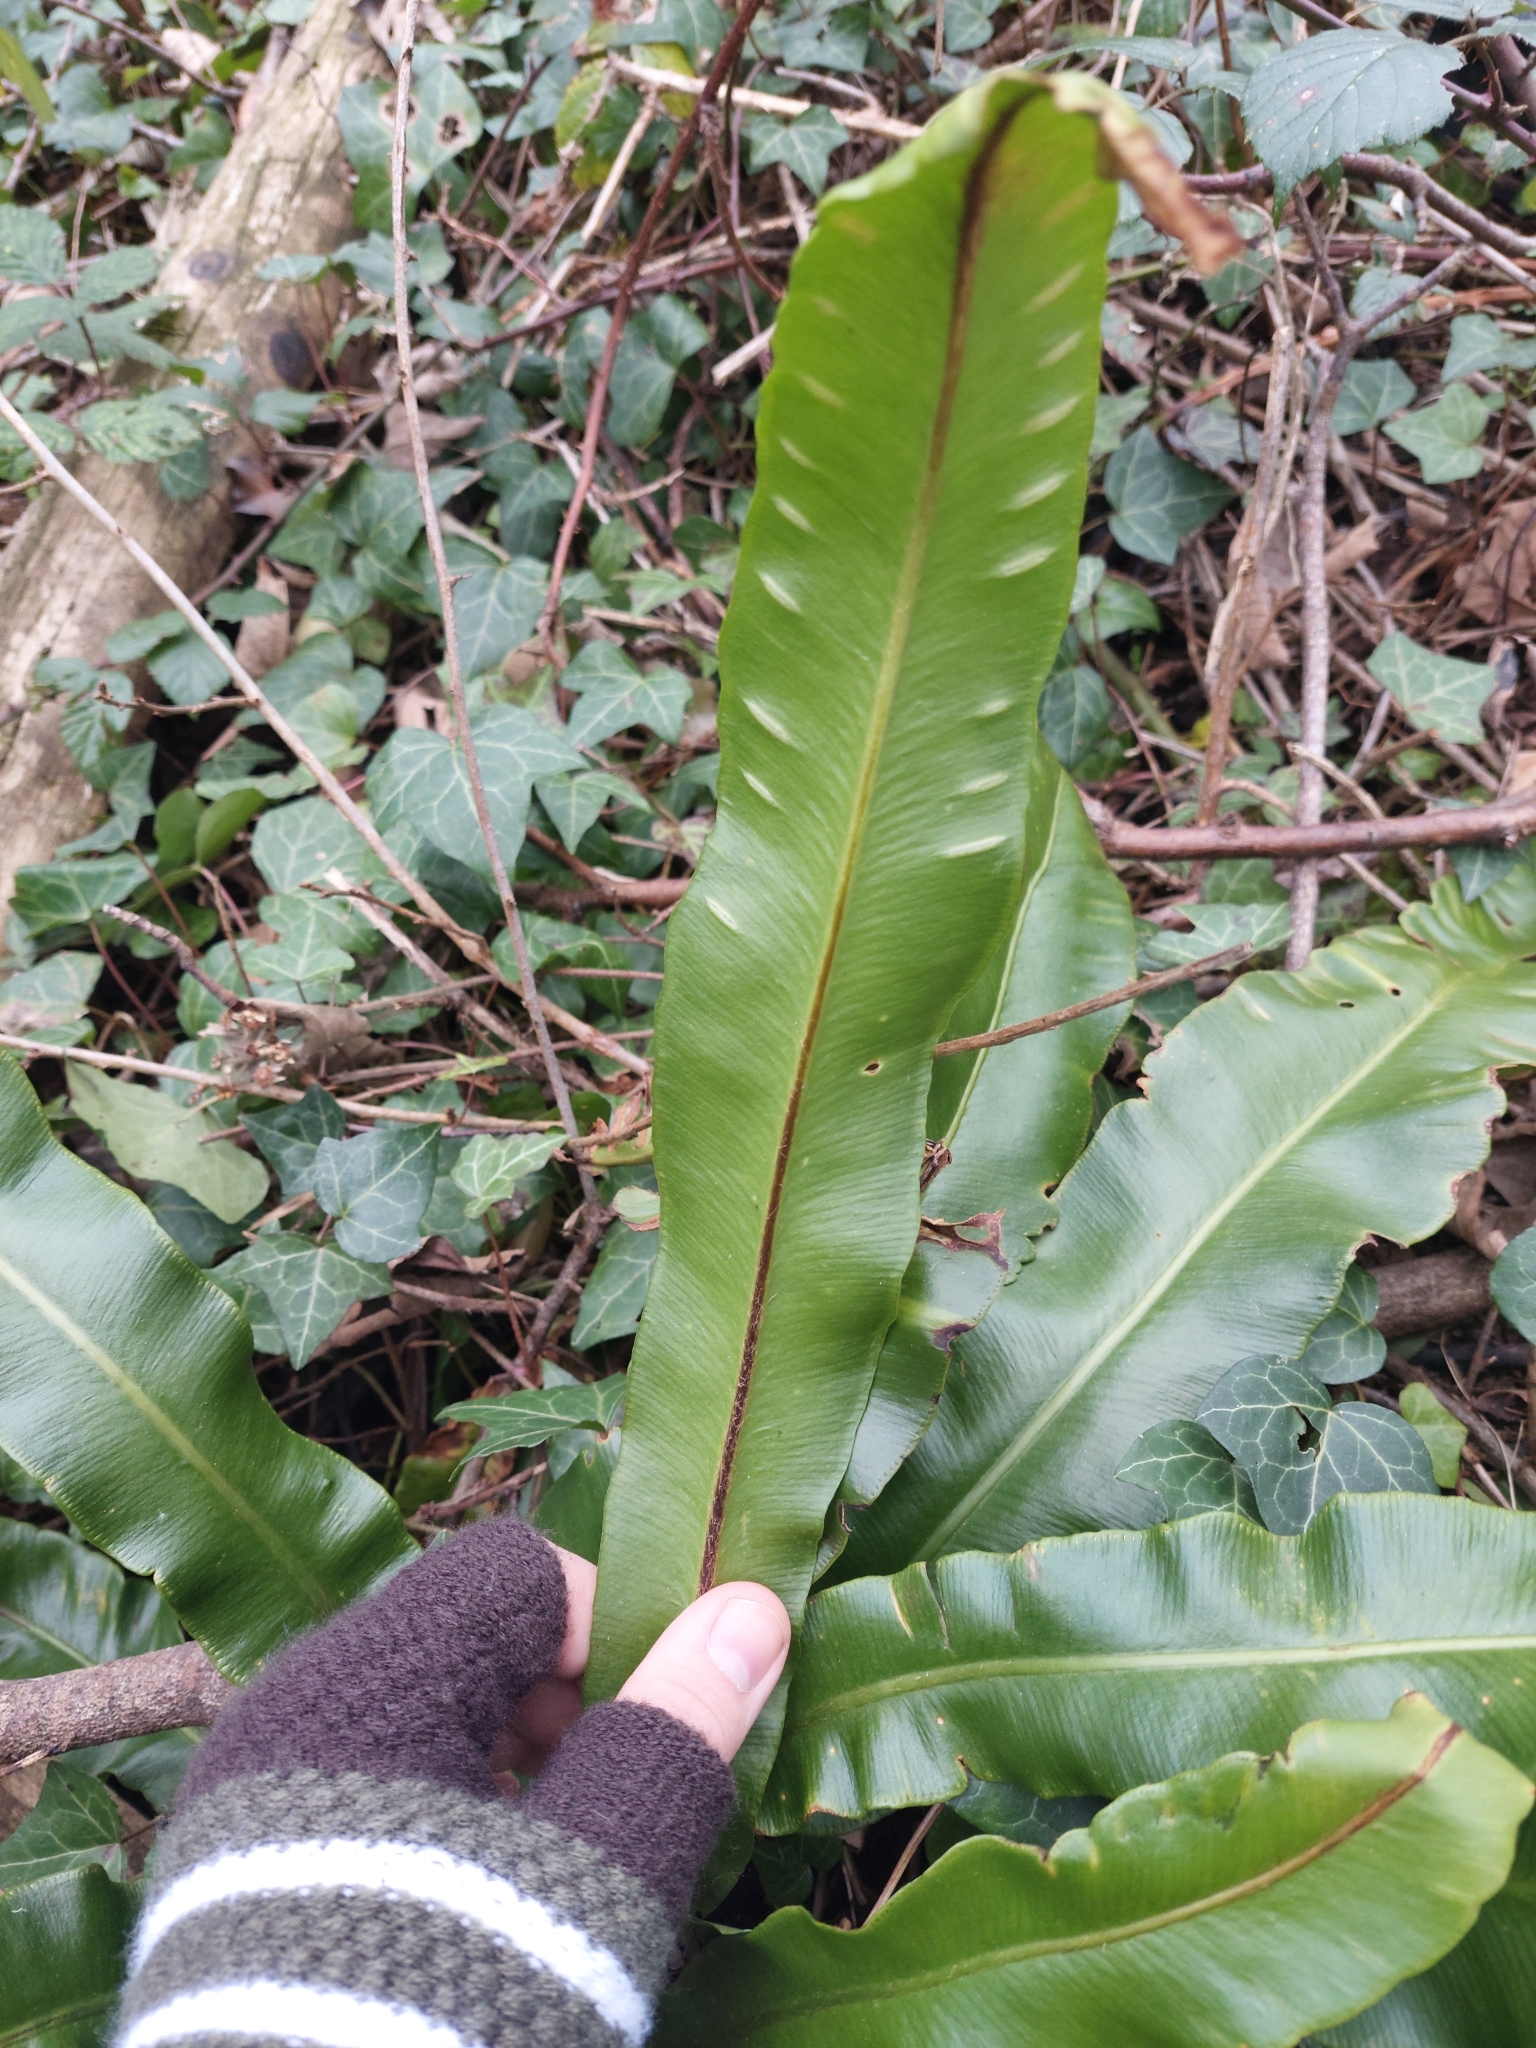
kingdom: Plantae
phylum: Tracheophyta
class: Polypodiopsida
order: Polypodiales
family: Aspleniaceae
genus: Asplenium
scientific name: Asplenium scolopendrium
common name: Hart's-tongue fern
